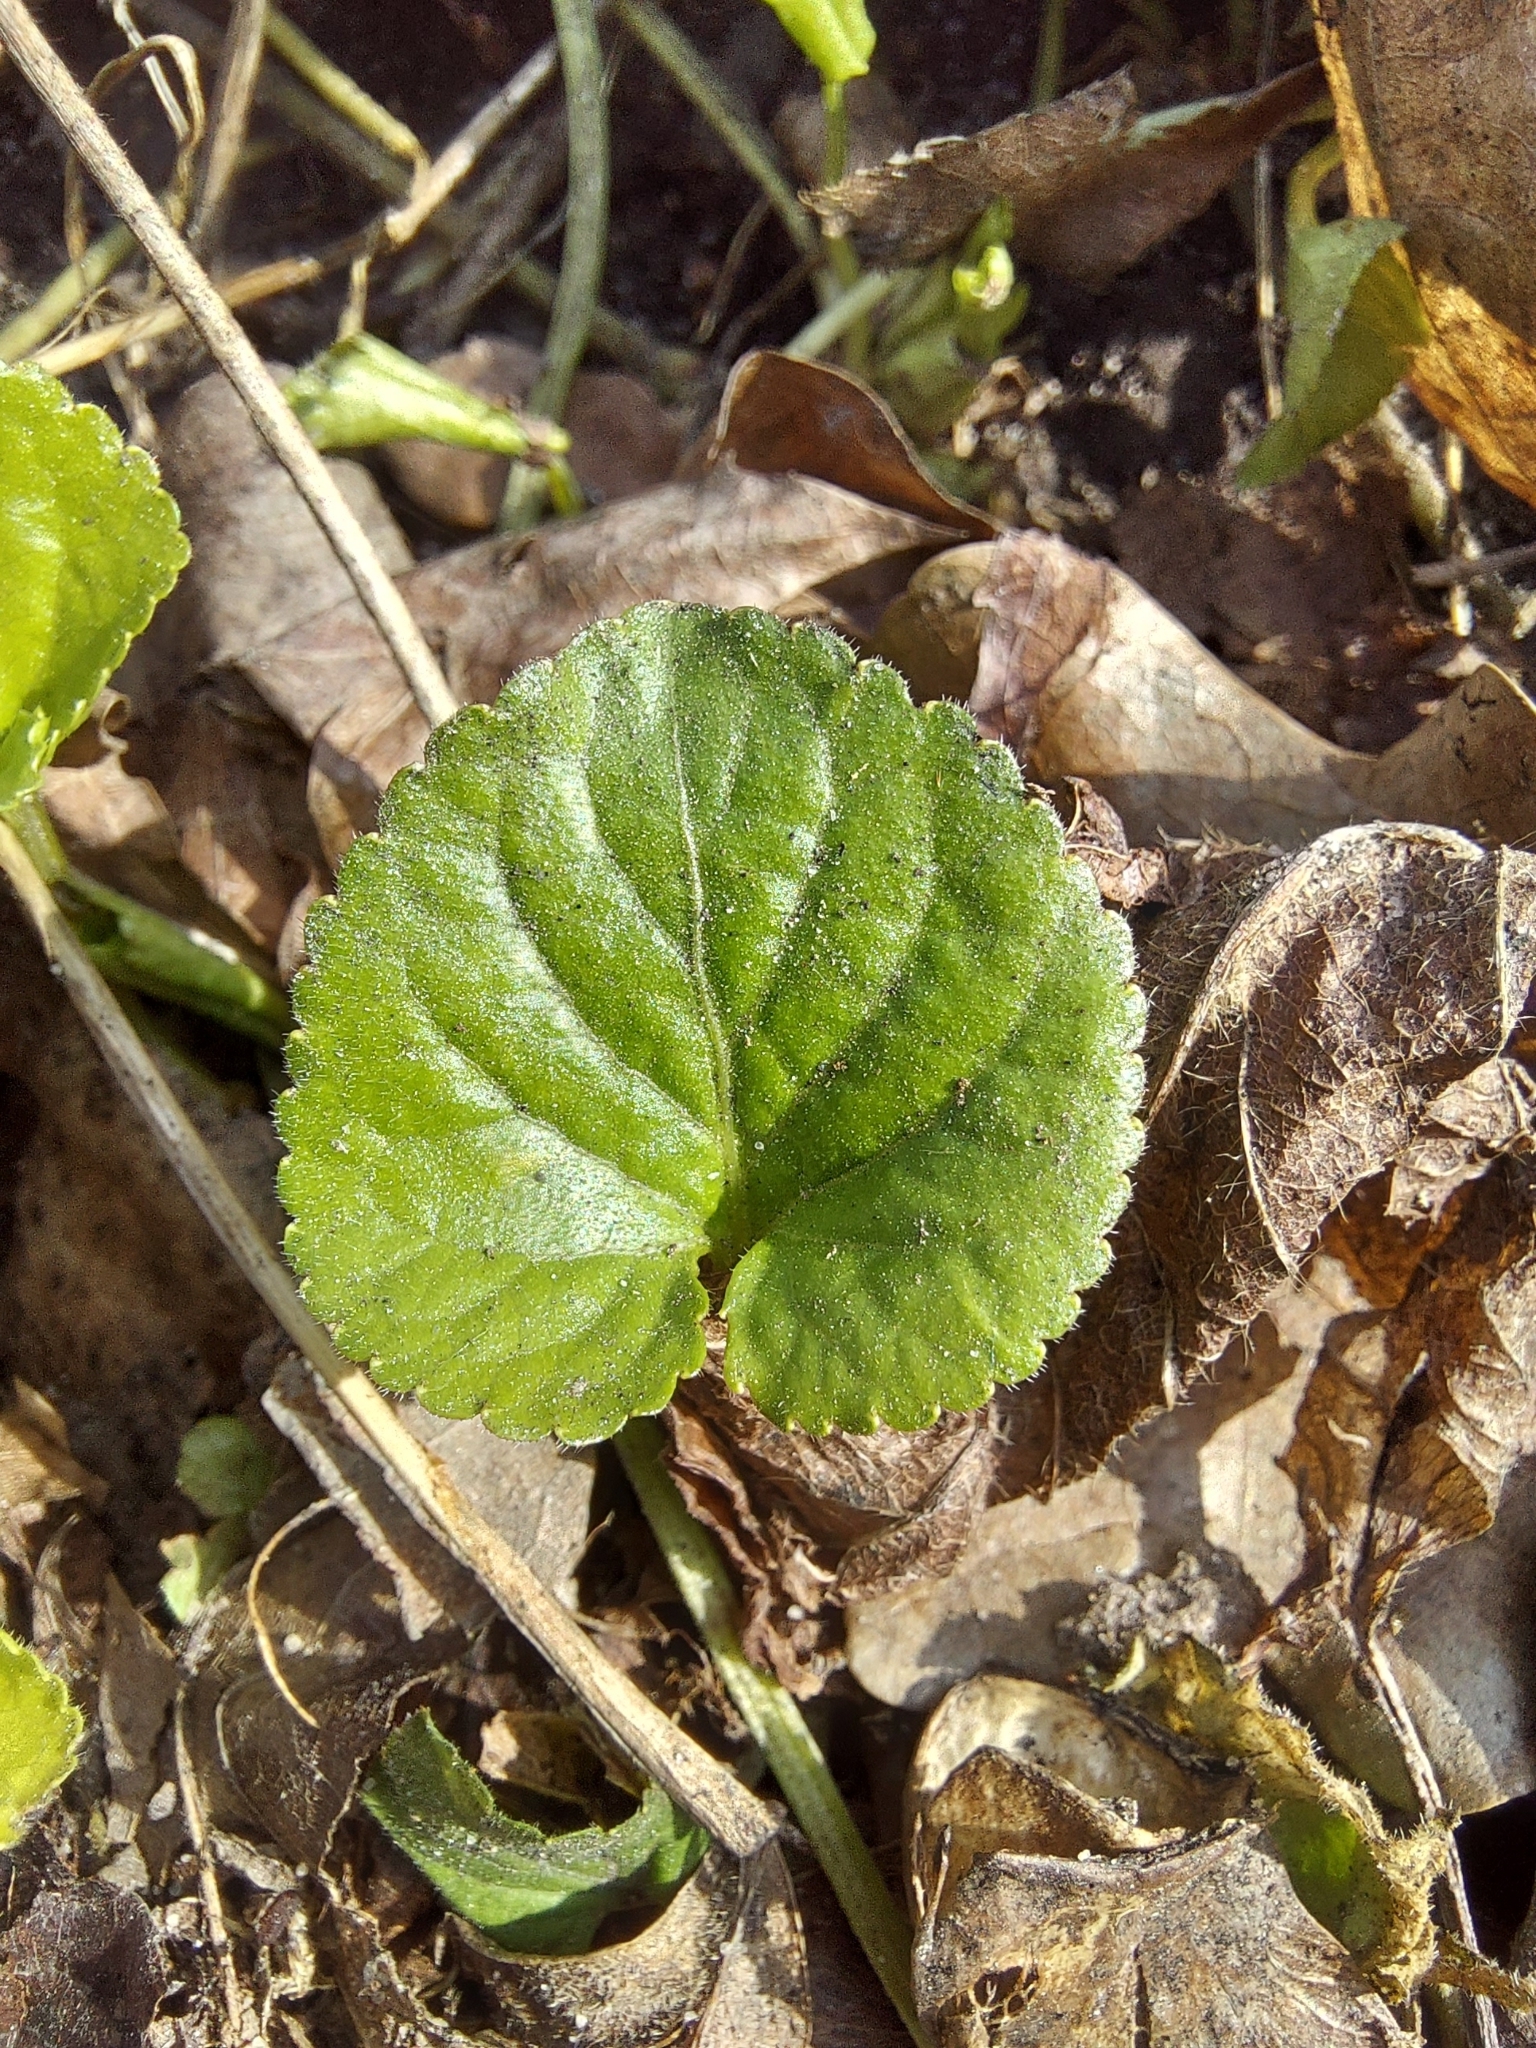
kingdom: Plantae
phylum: Tracheophyta
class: Magnoliopsida
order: Malpighiales
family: Violaceae
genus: Viola
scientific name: Viola odorata
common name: Sweet violet
